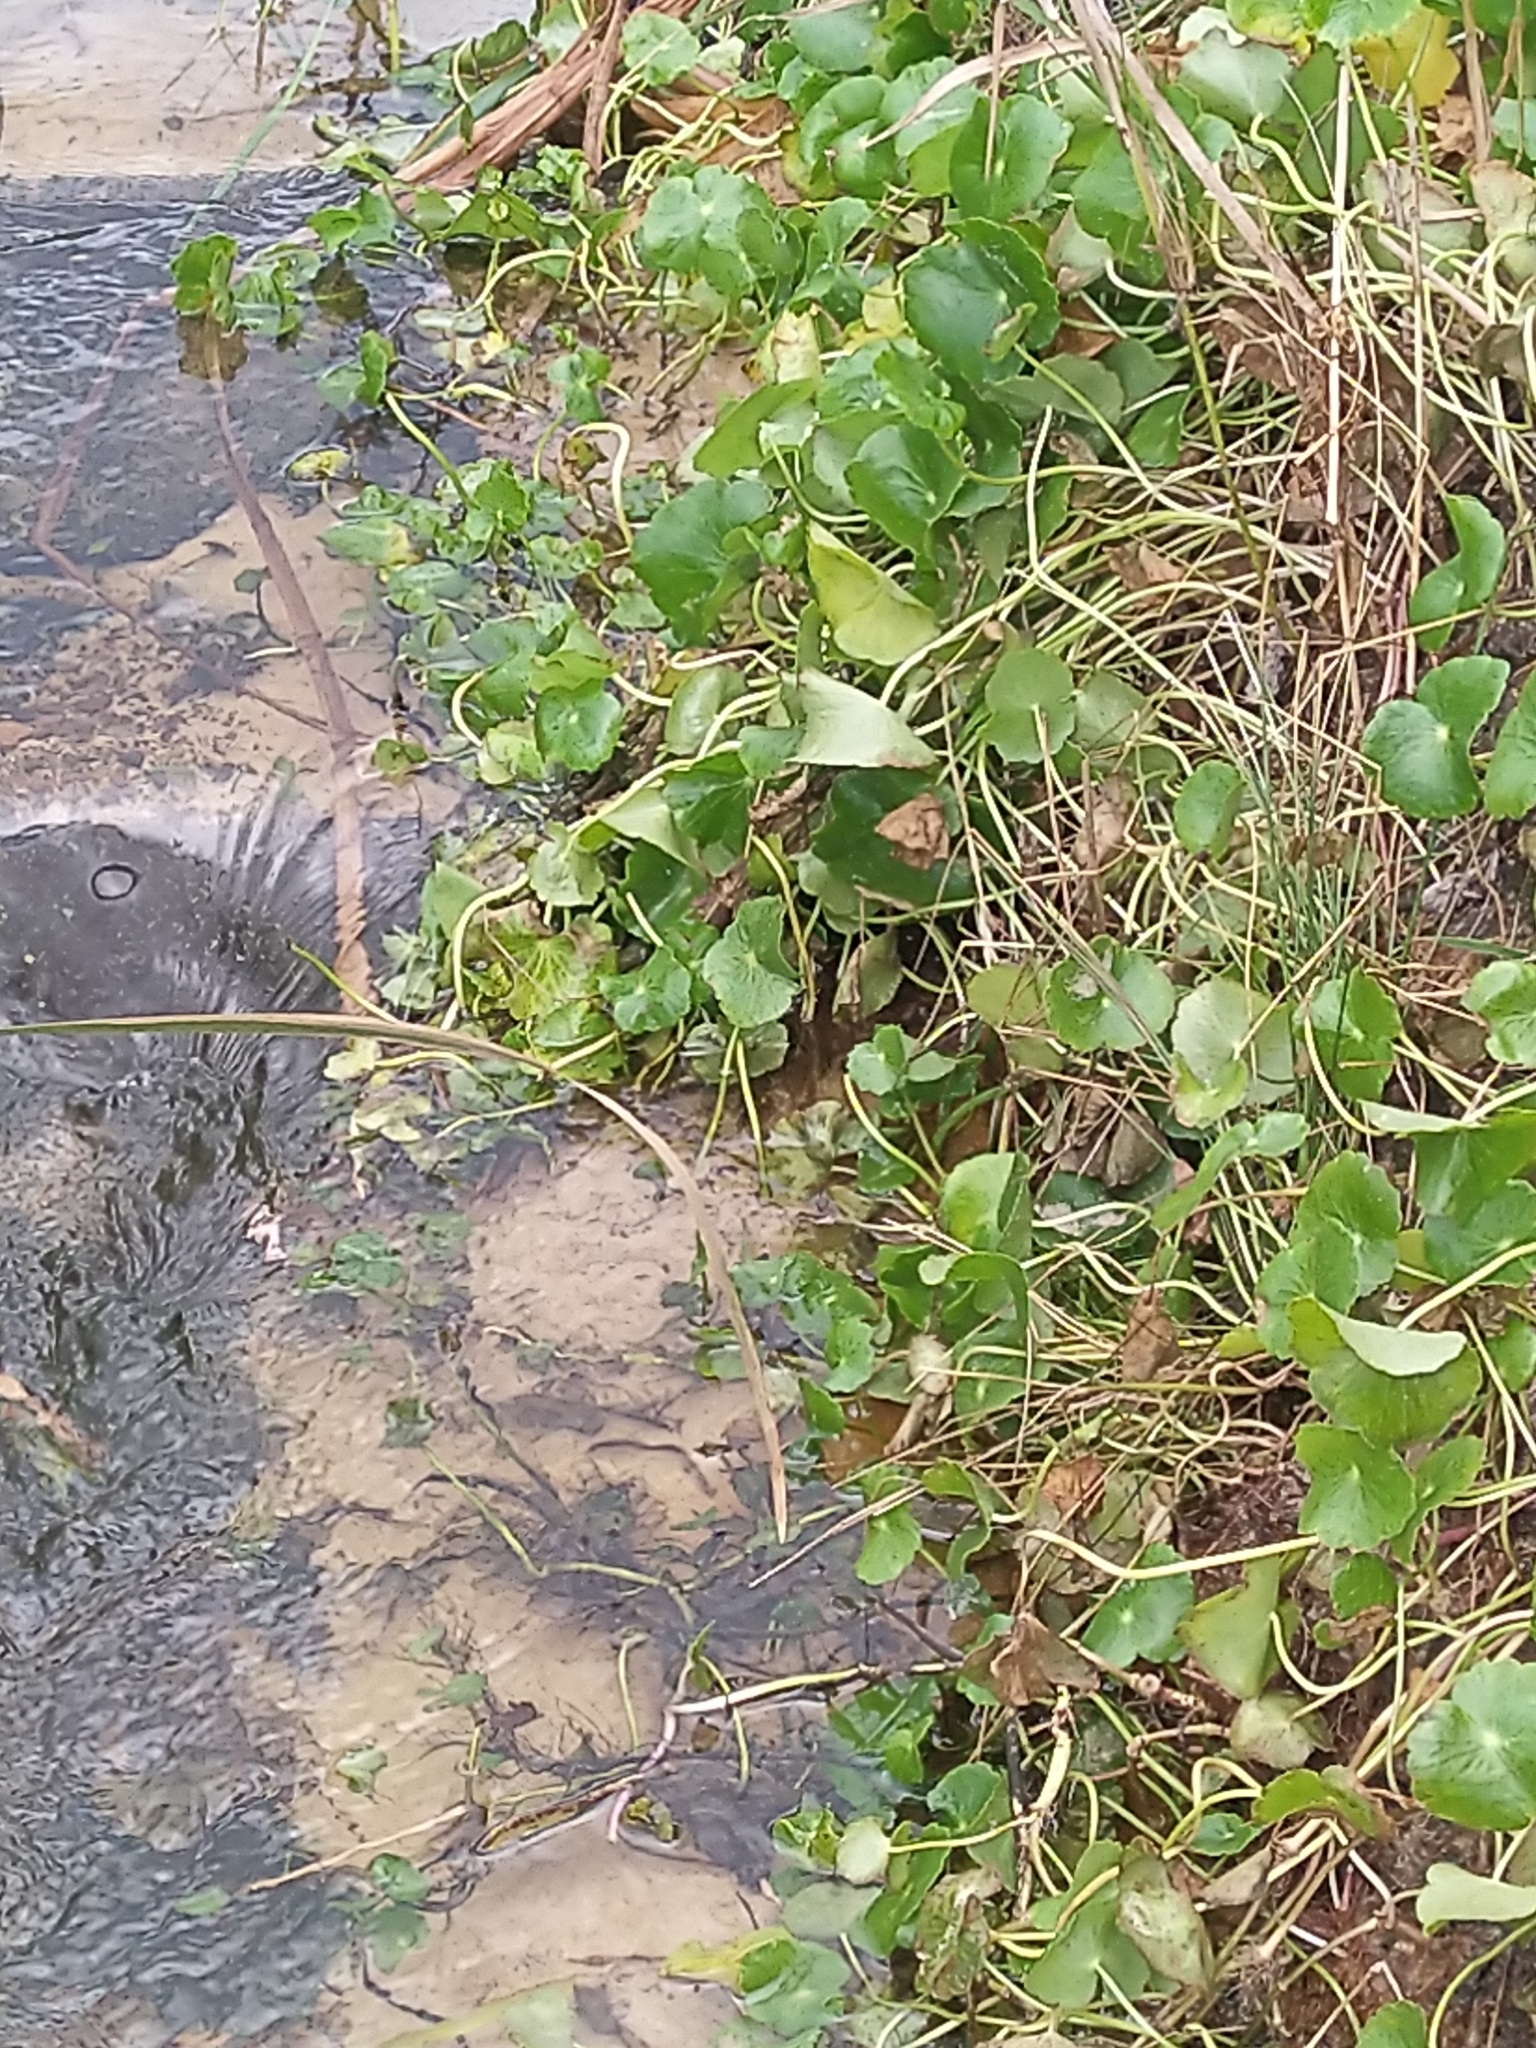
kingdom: Plantae
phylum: Tracheophyta
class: Magnoliopsida
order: Apiales
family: Araliaceae
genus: Hydrocotyle
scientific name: Hydrocotyle bonariensis
